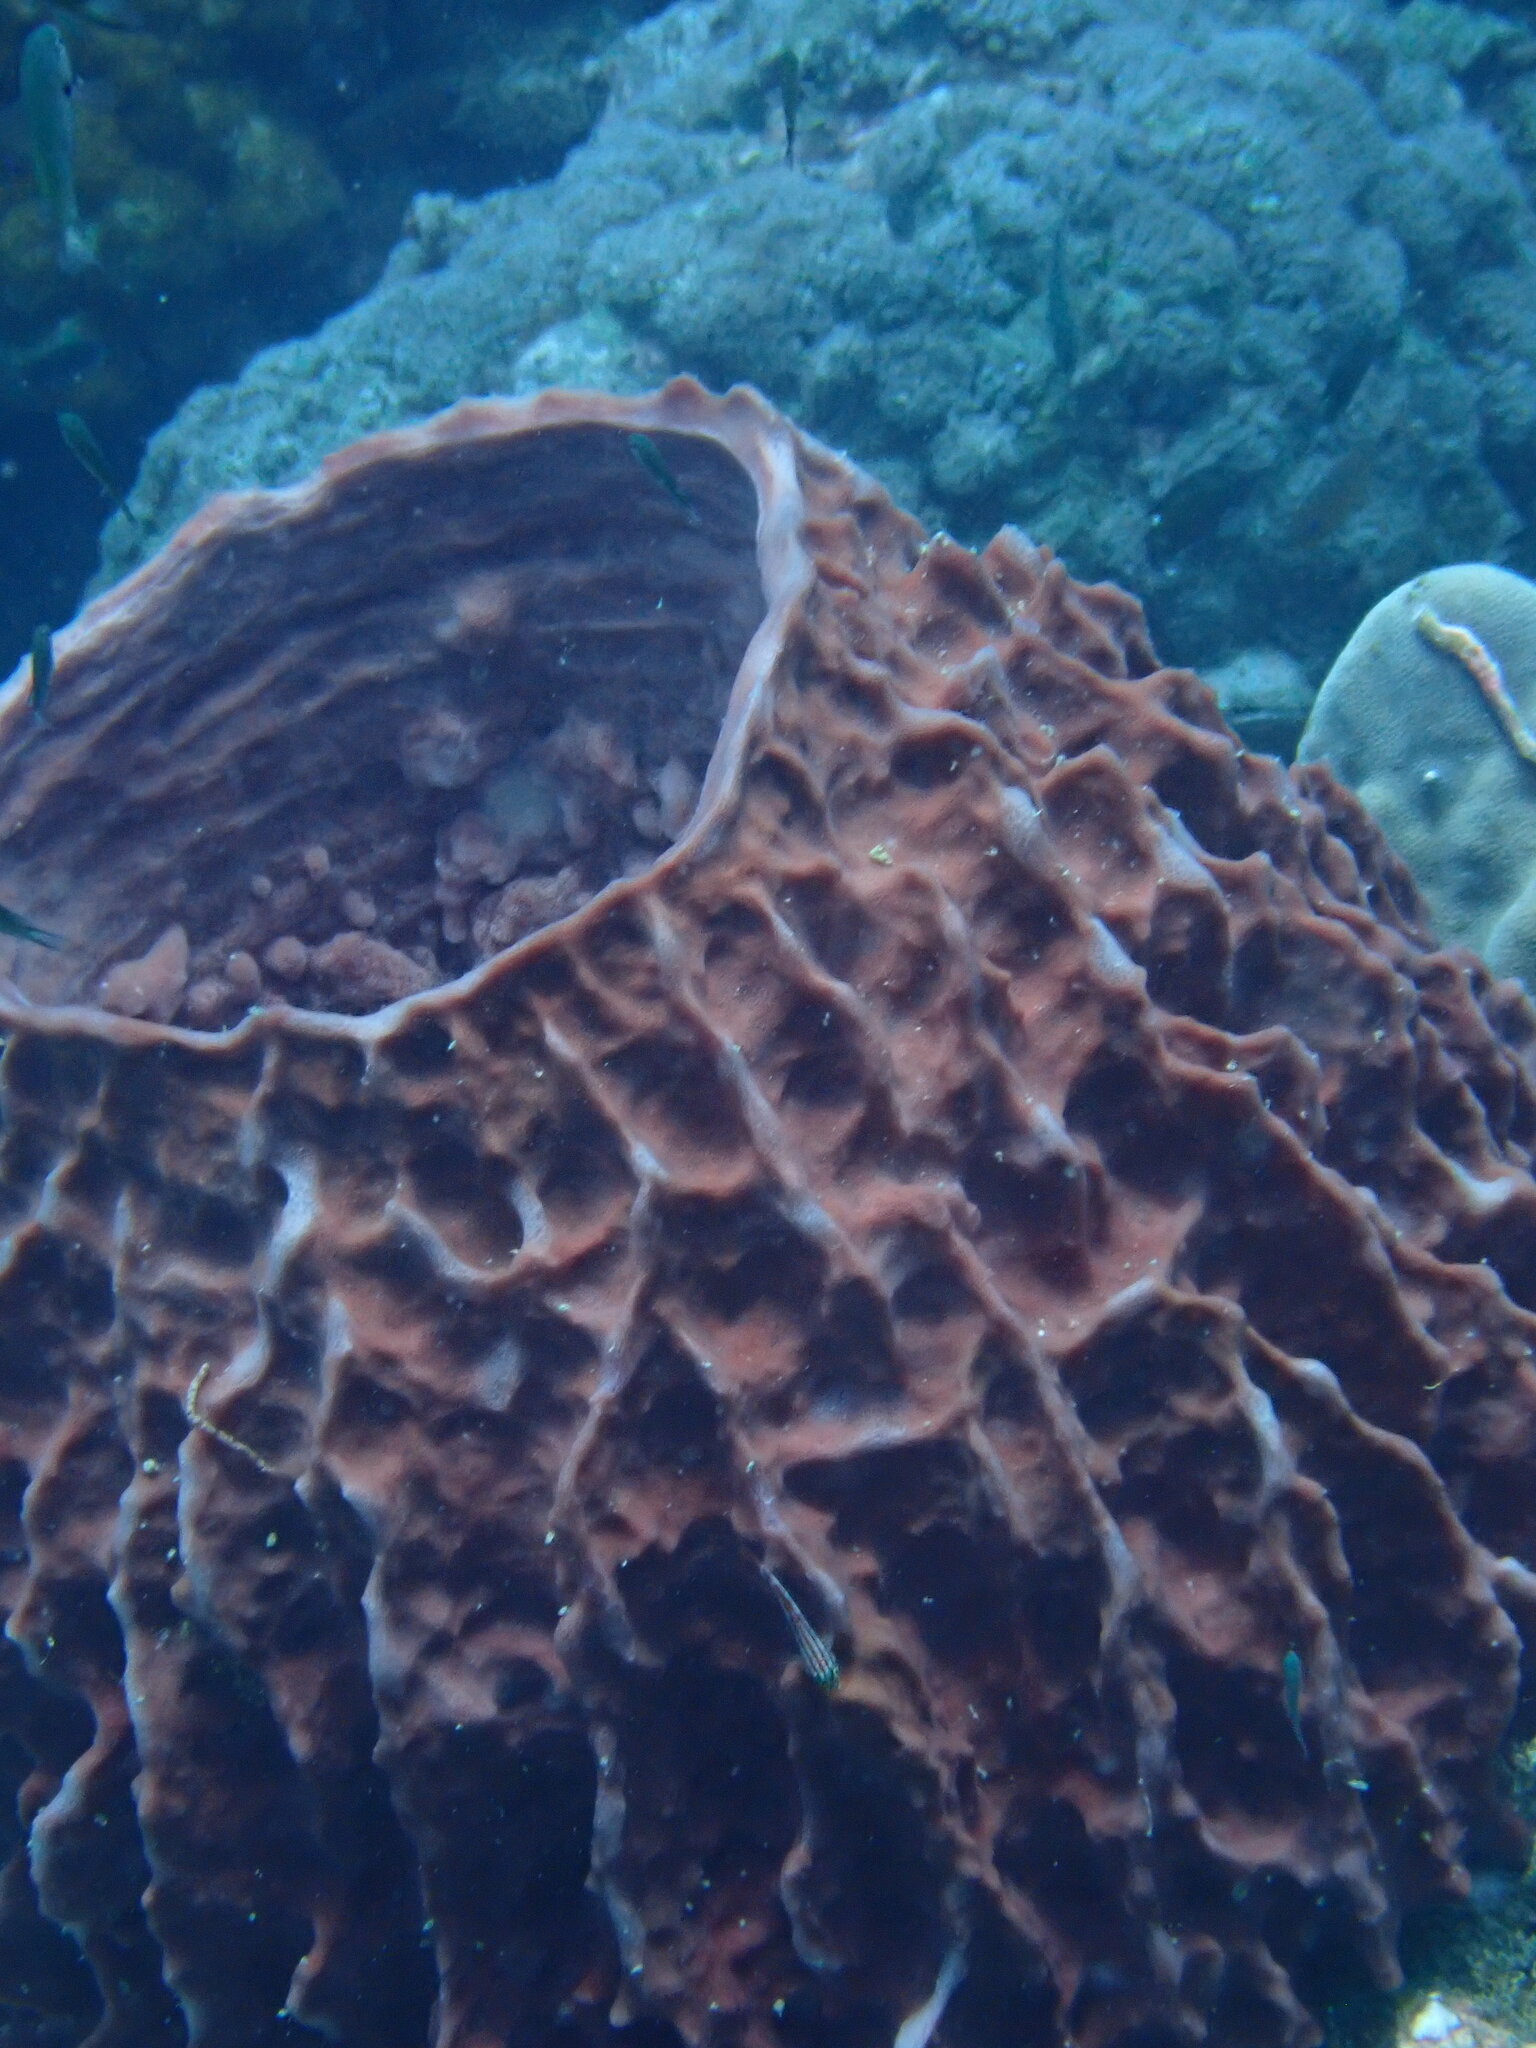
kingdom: Animalia
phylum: Porifera
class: Demospongiae
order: Haplosclerida
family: Petrosiidae
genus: Xestospongia
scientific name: Xestospongia testudinaria
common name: Barrel sponge
